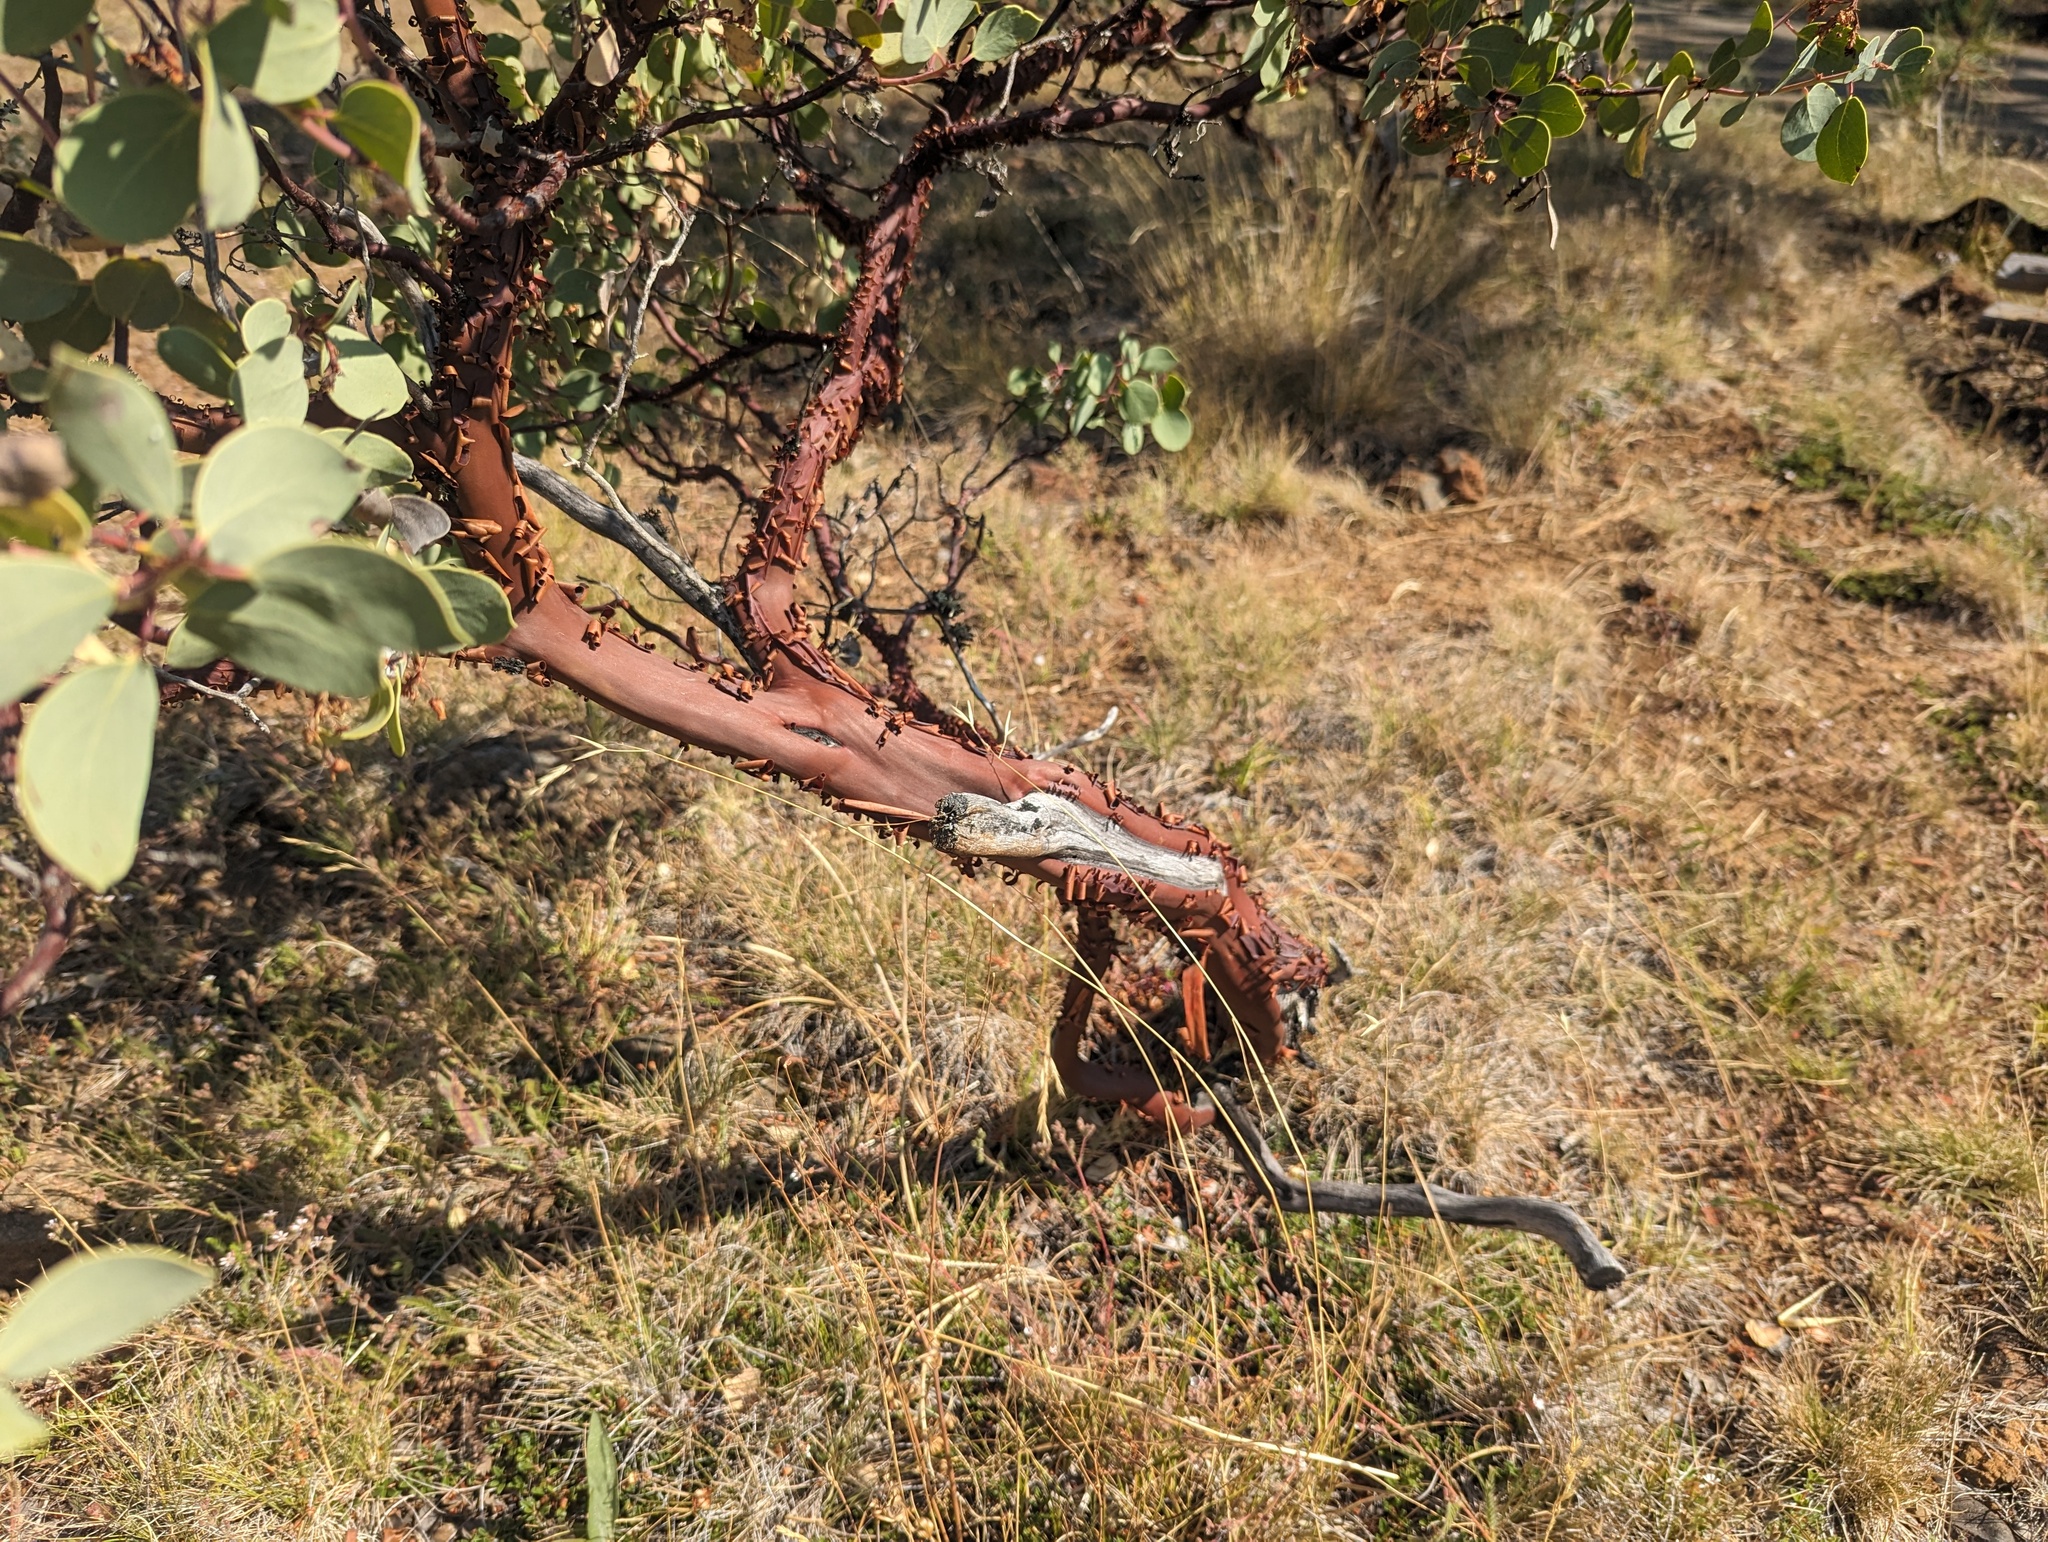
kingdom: Plantae
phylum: Tracheophyta
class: Magnoliopsida
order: Ericales
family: Ericaceae
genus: Arctostaphylos
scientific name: Arctostaphylos viscida
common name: White-leaf manzanita
